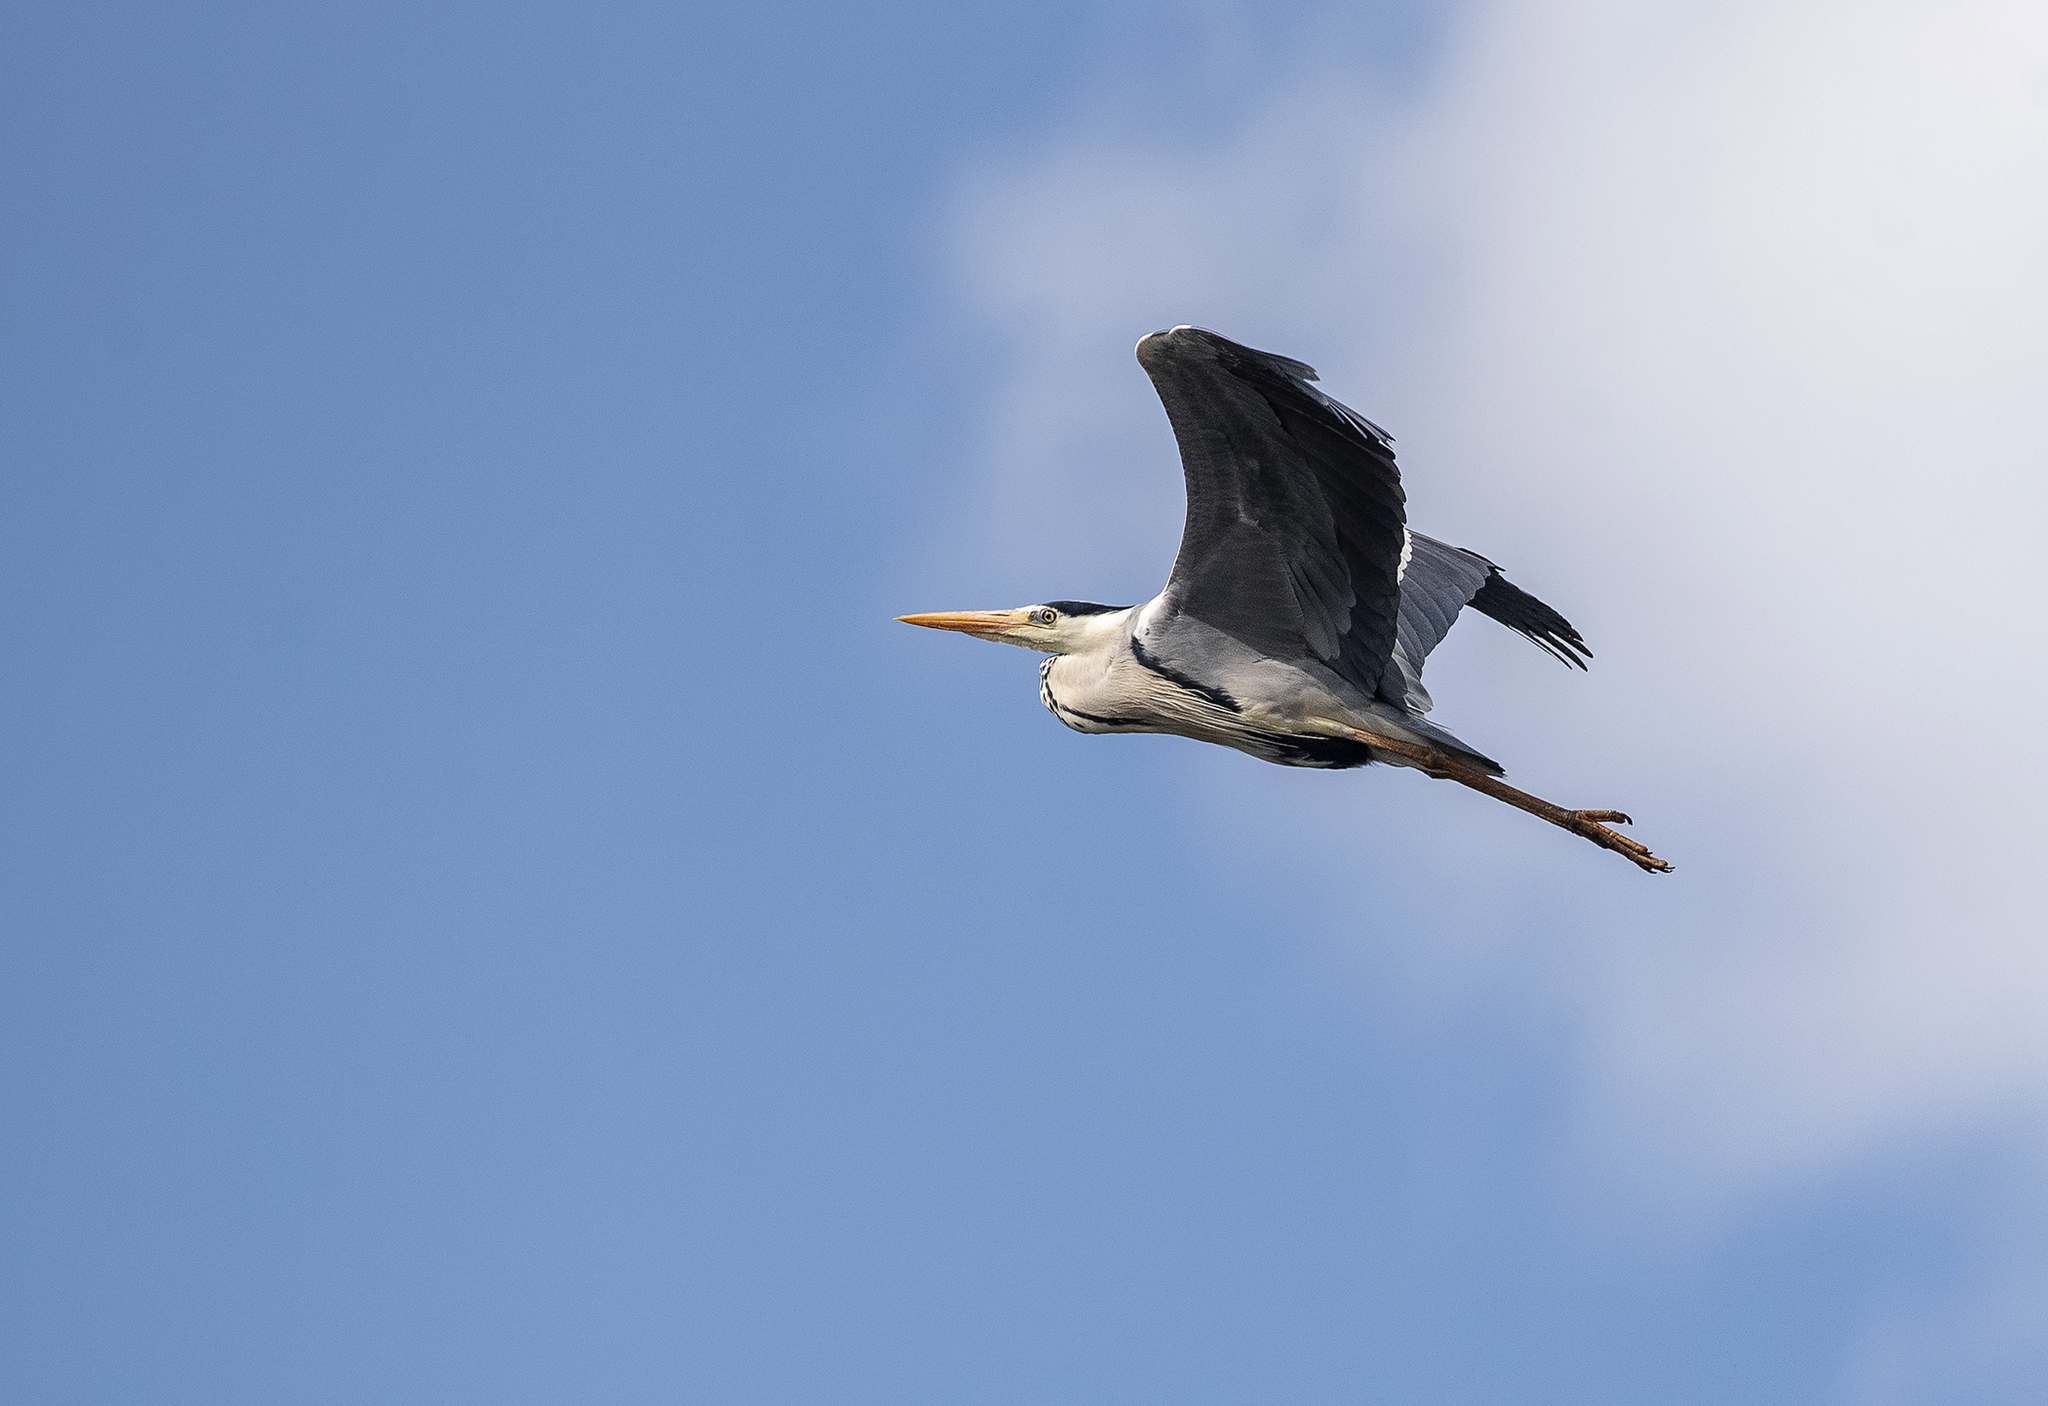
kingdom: Animalia
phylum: Chordata
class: Aves
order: Pelecaniformes
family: Ardeidae
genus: Ardea
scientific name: Ardea cinerea
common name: Grey heron
